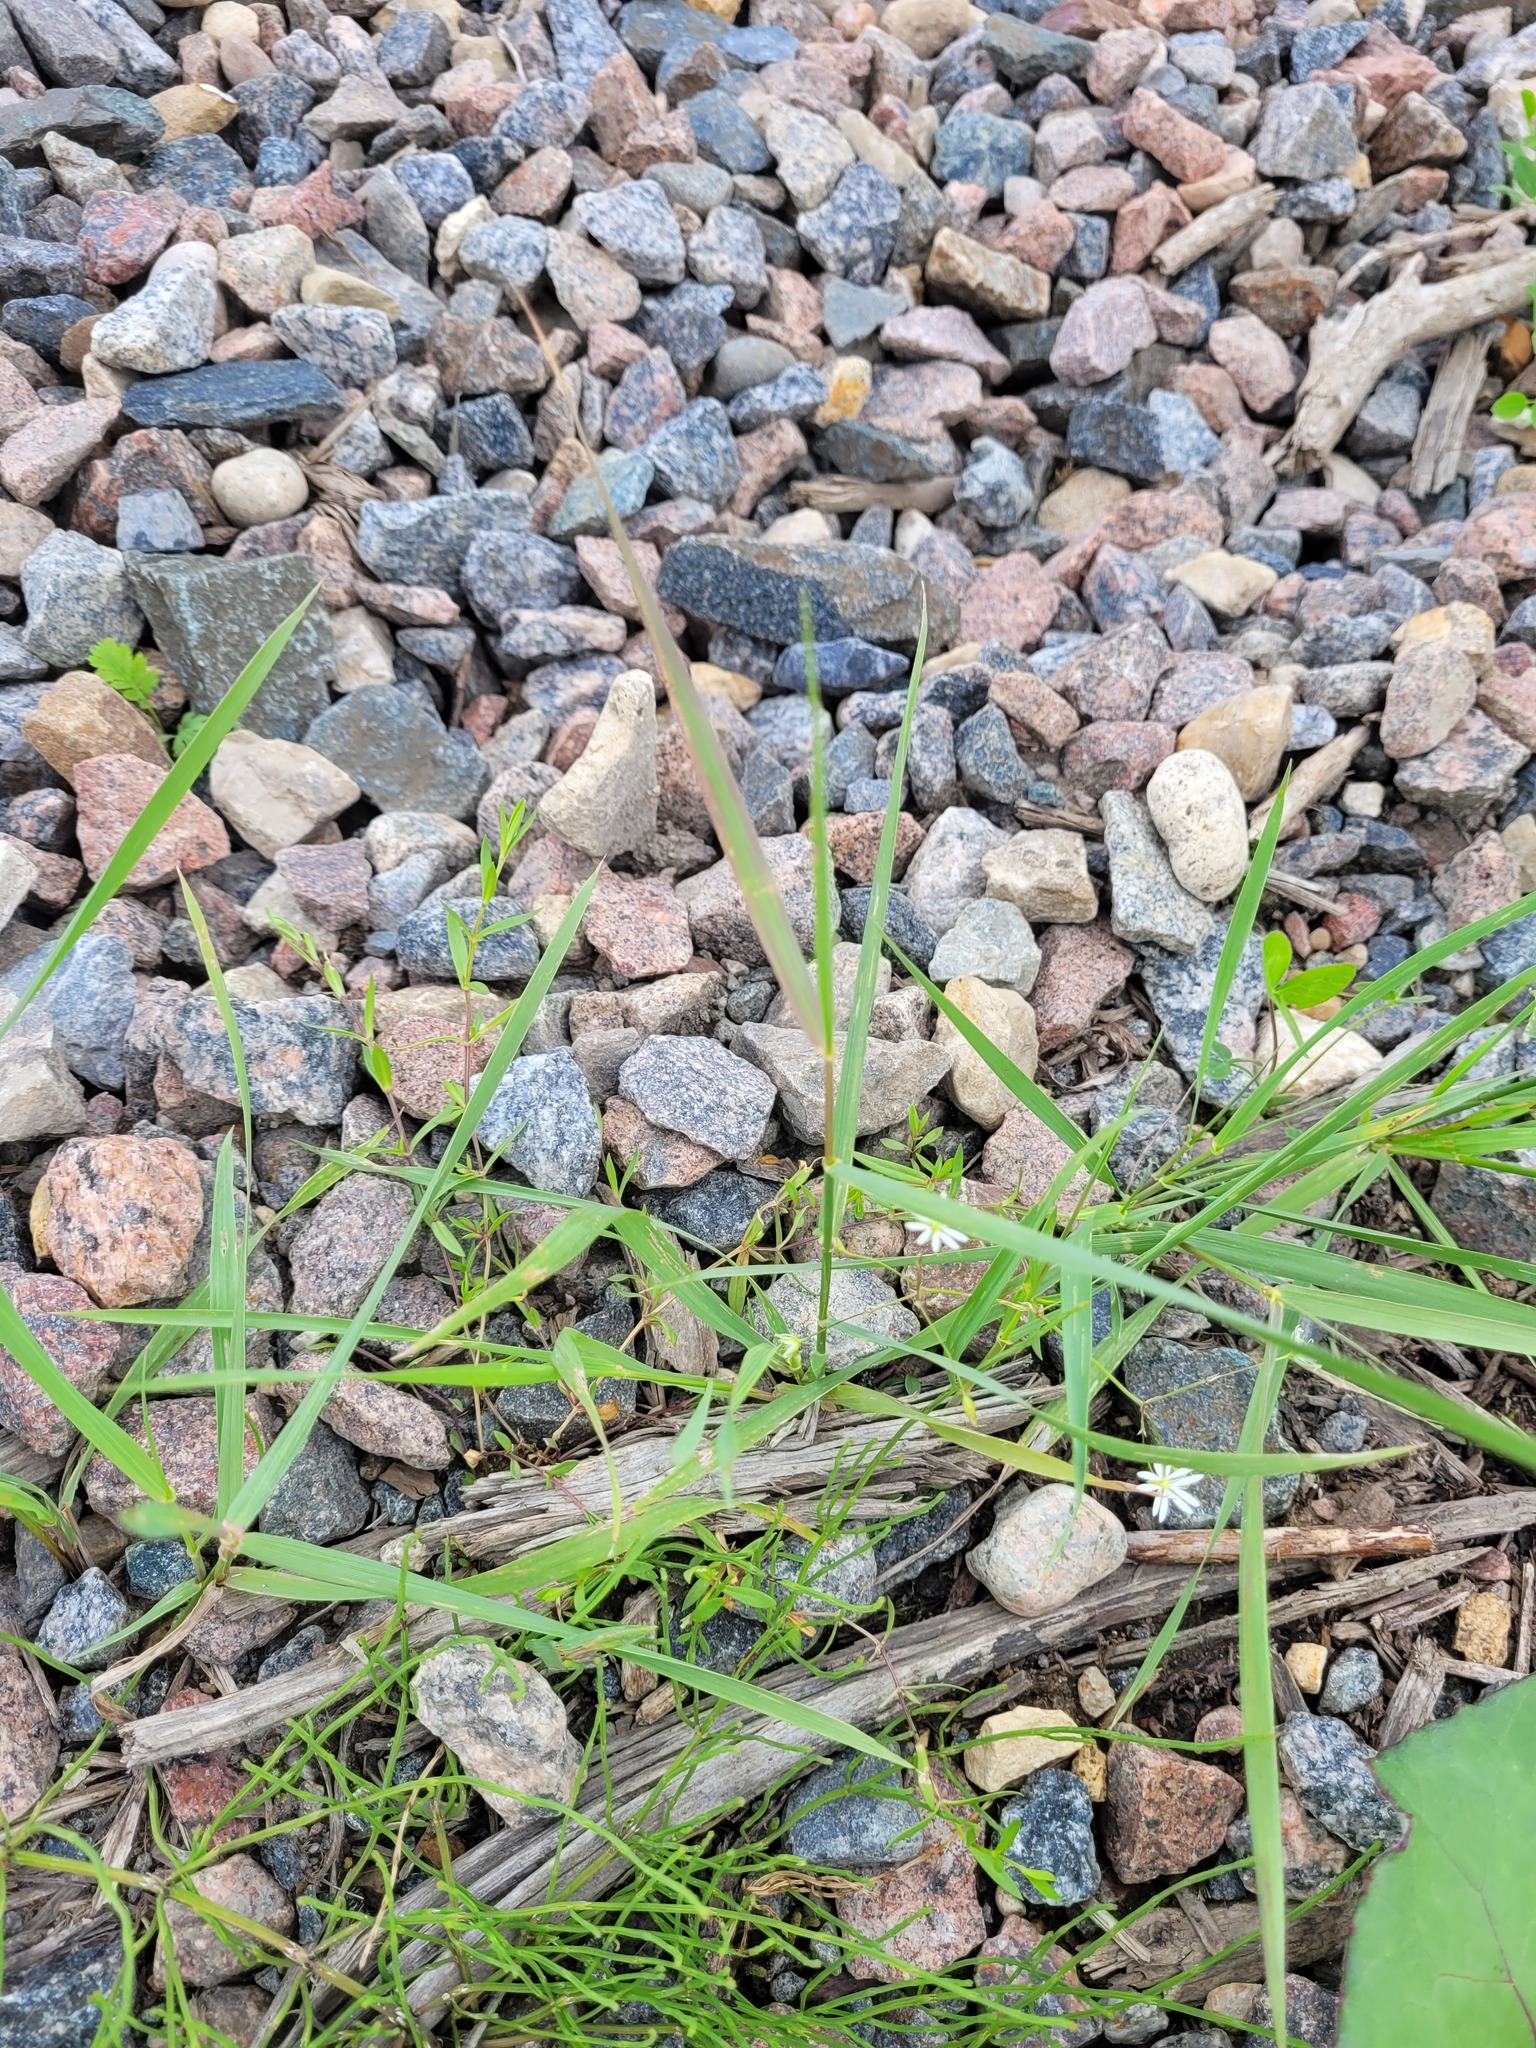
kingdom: Plantae
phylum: Tracheophyta
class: Magnoliopsida
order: Caryophyllales
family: Caryophyllaceae
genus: Stellaria
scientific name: Stellaria graminea
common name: Grass-like starwort
